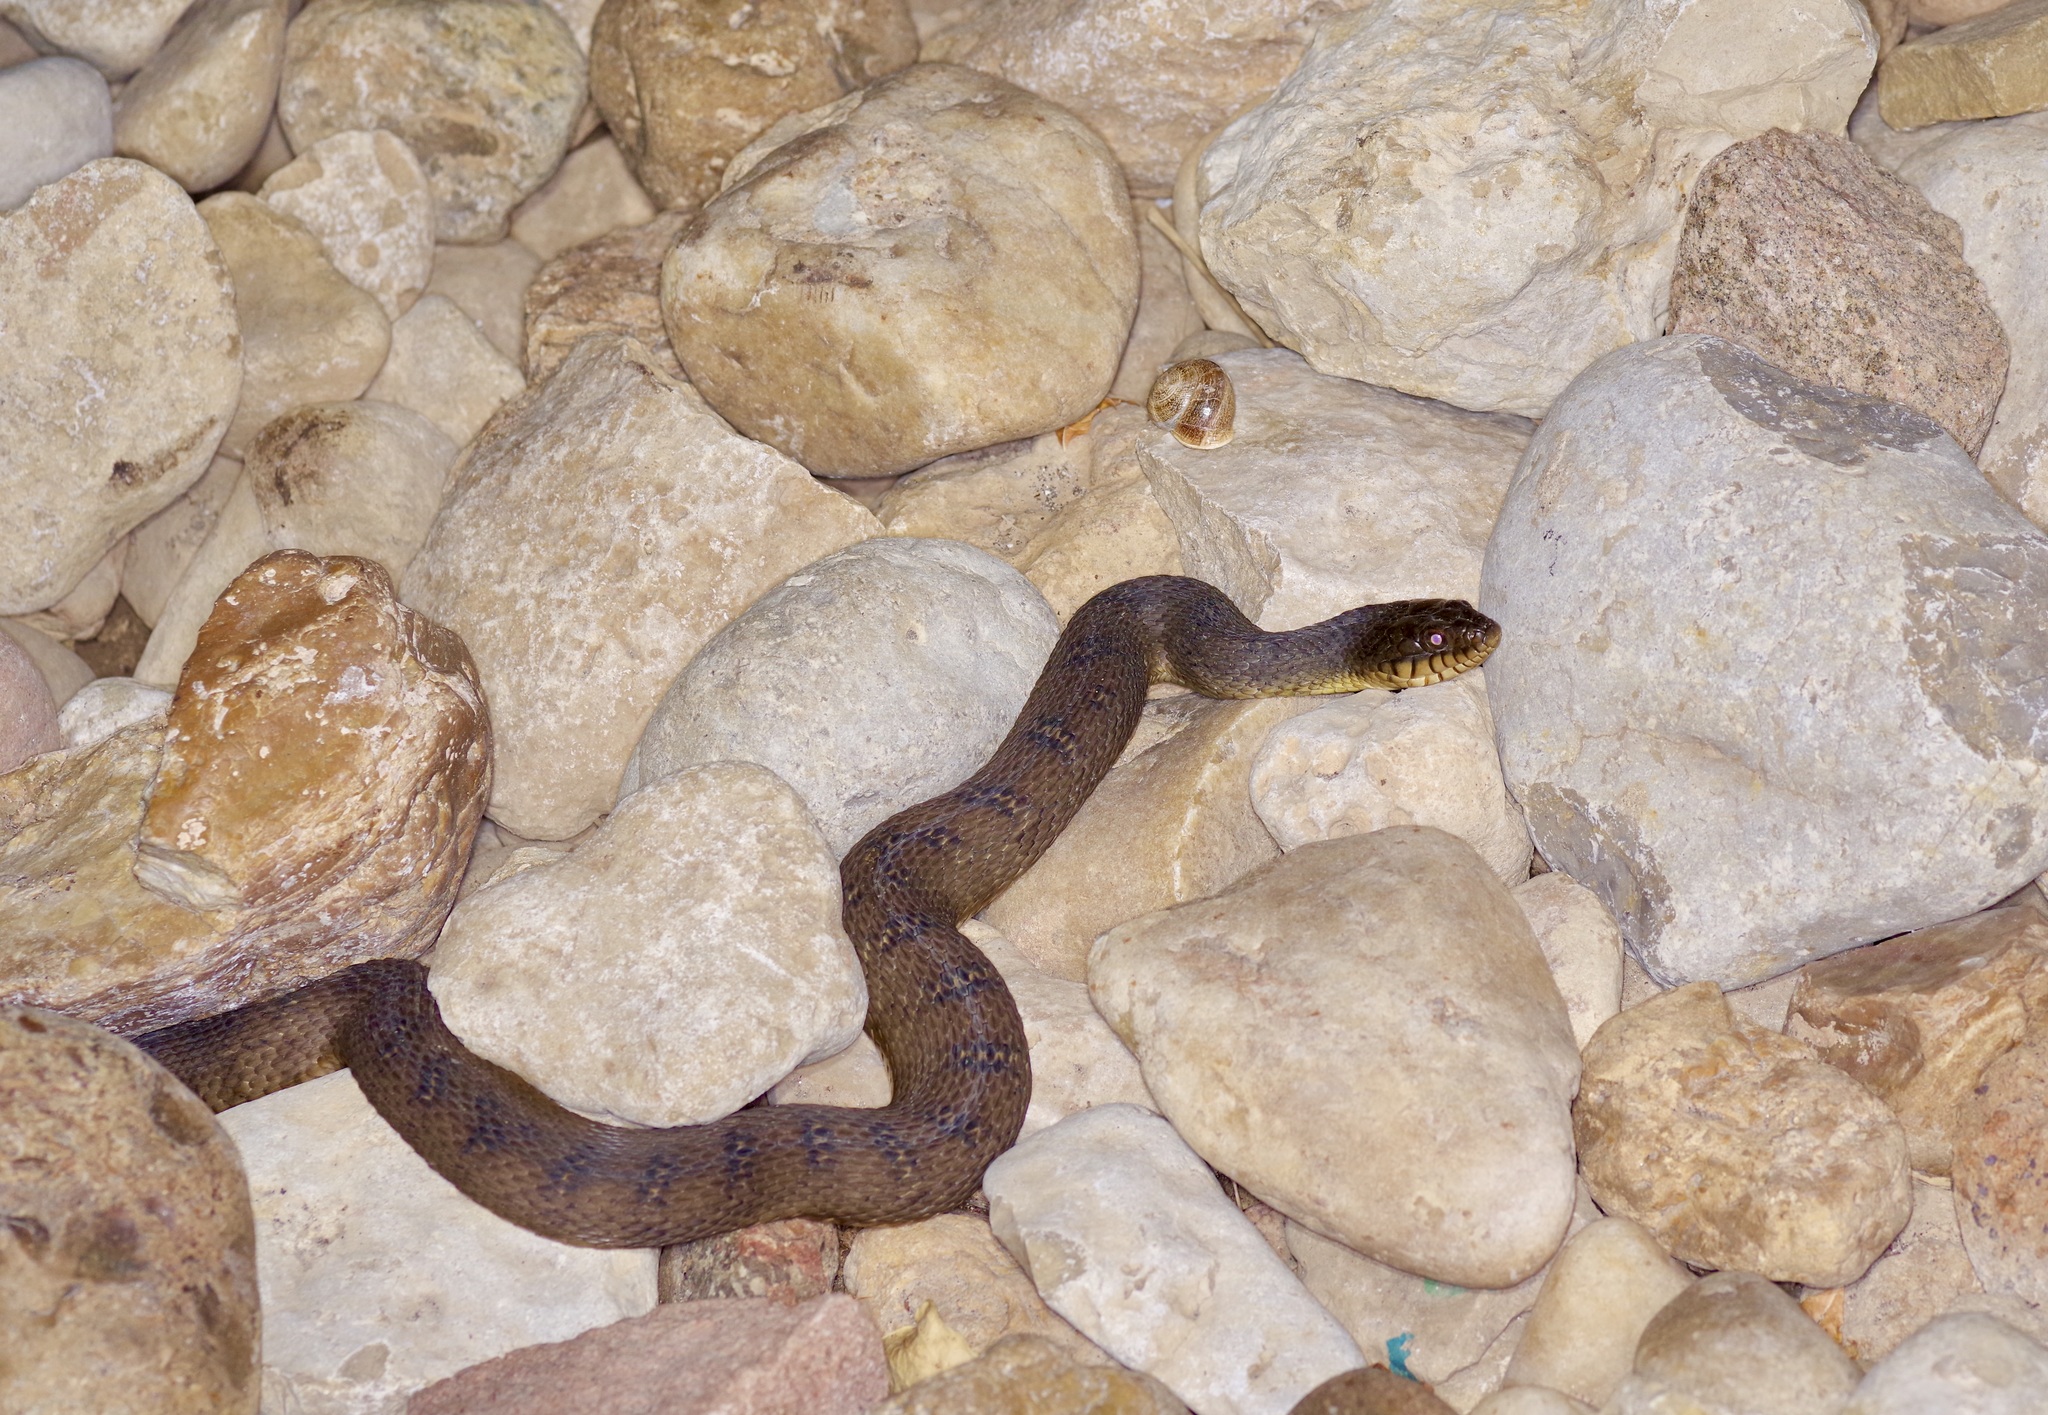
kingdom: Animalia
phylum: Chordata
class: Squamata
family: Colubridae
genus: Nerodia
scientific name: Nerodia erythrogaster
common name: Plainbelly water snake
